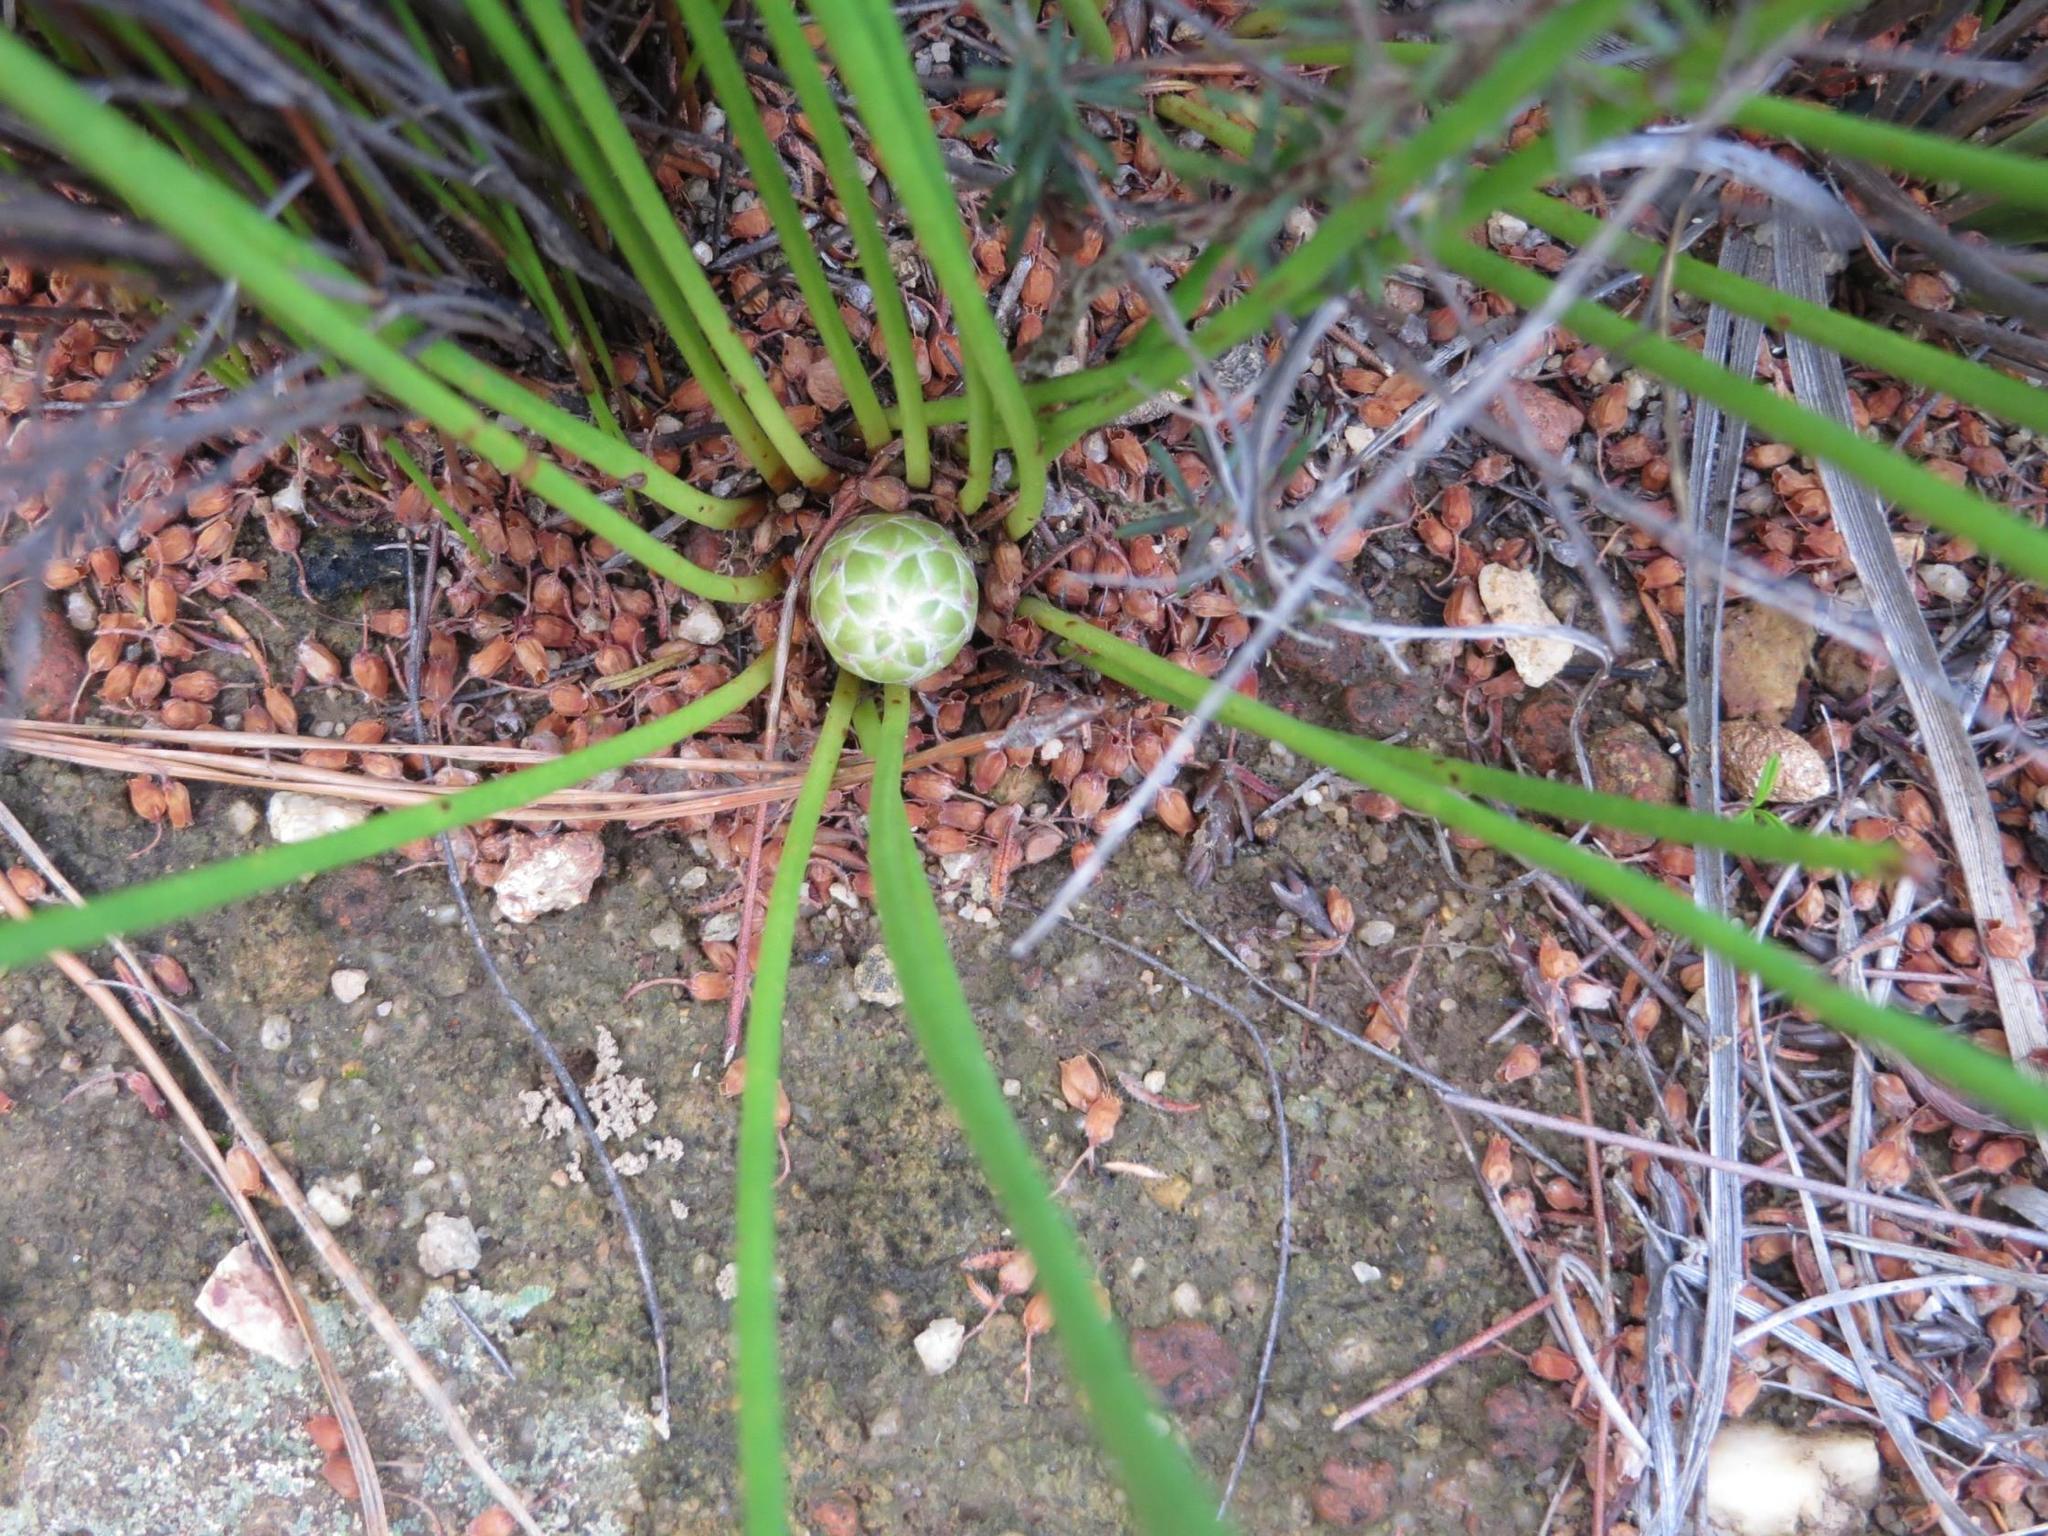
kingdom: Plantae
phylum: Tracheophyta
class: Magnoliopsida
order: Proteales
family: Proteaceae
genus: Protea
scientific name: Protea lorea
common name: Thong-leaf sugarbush
